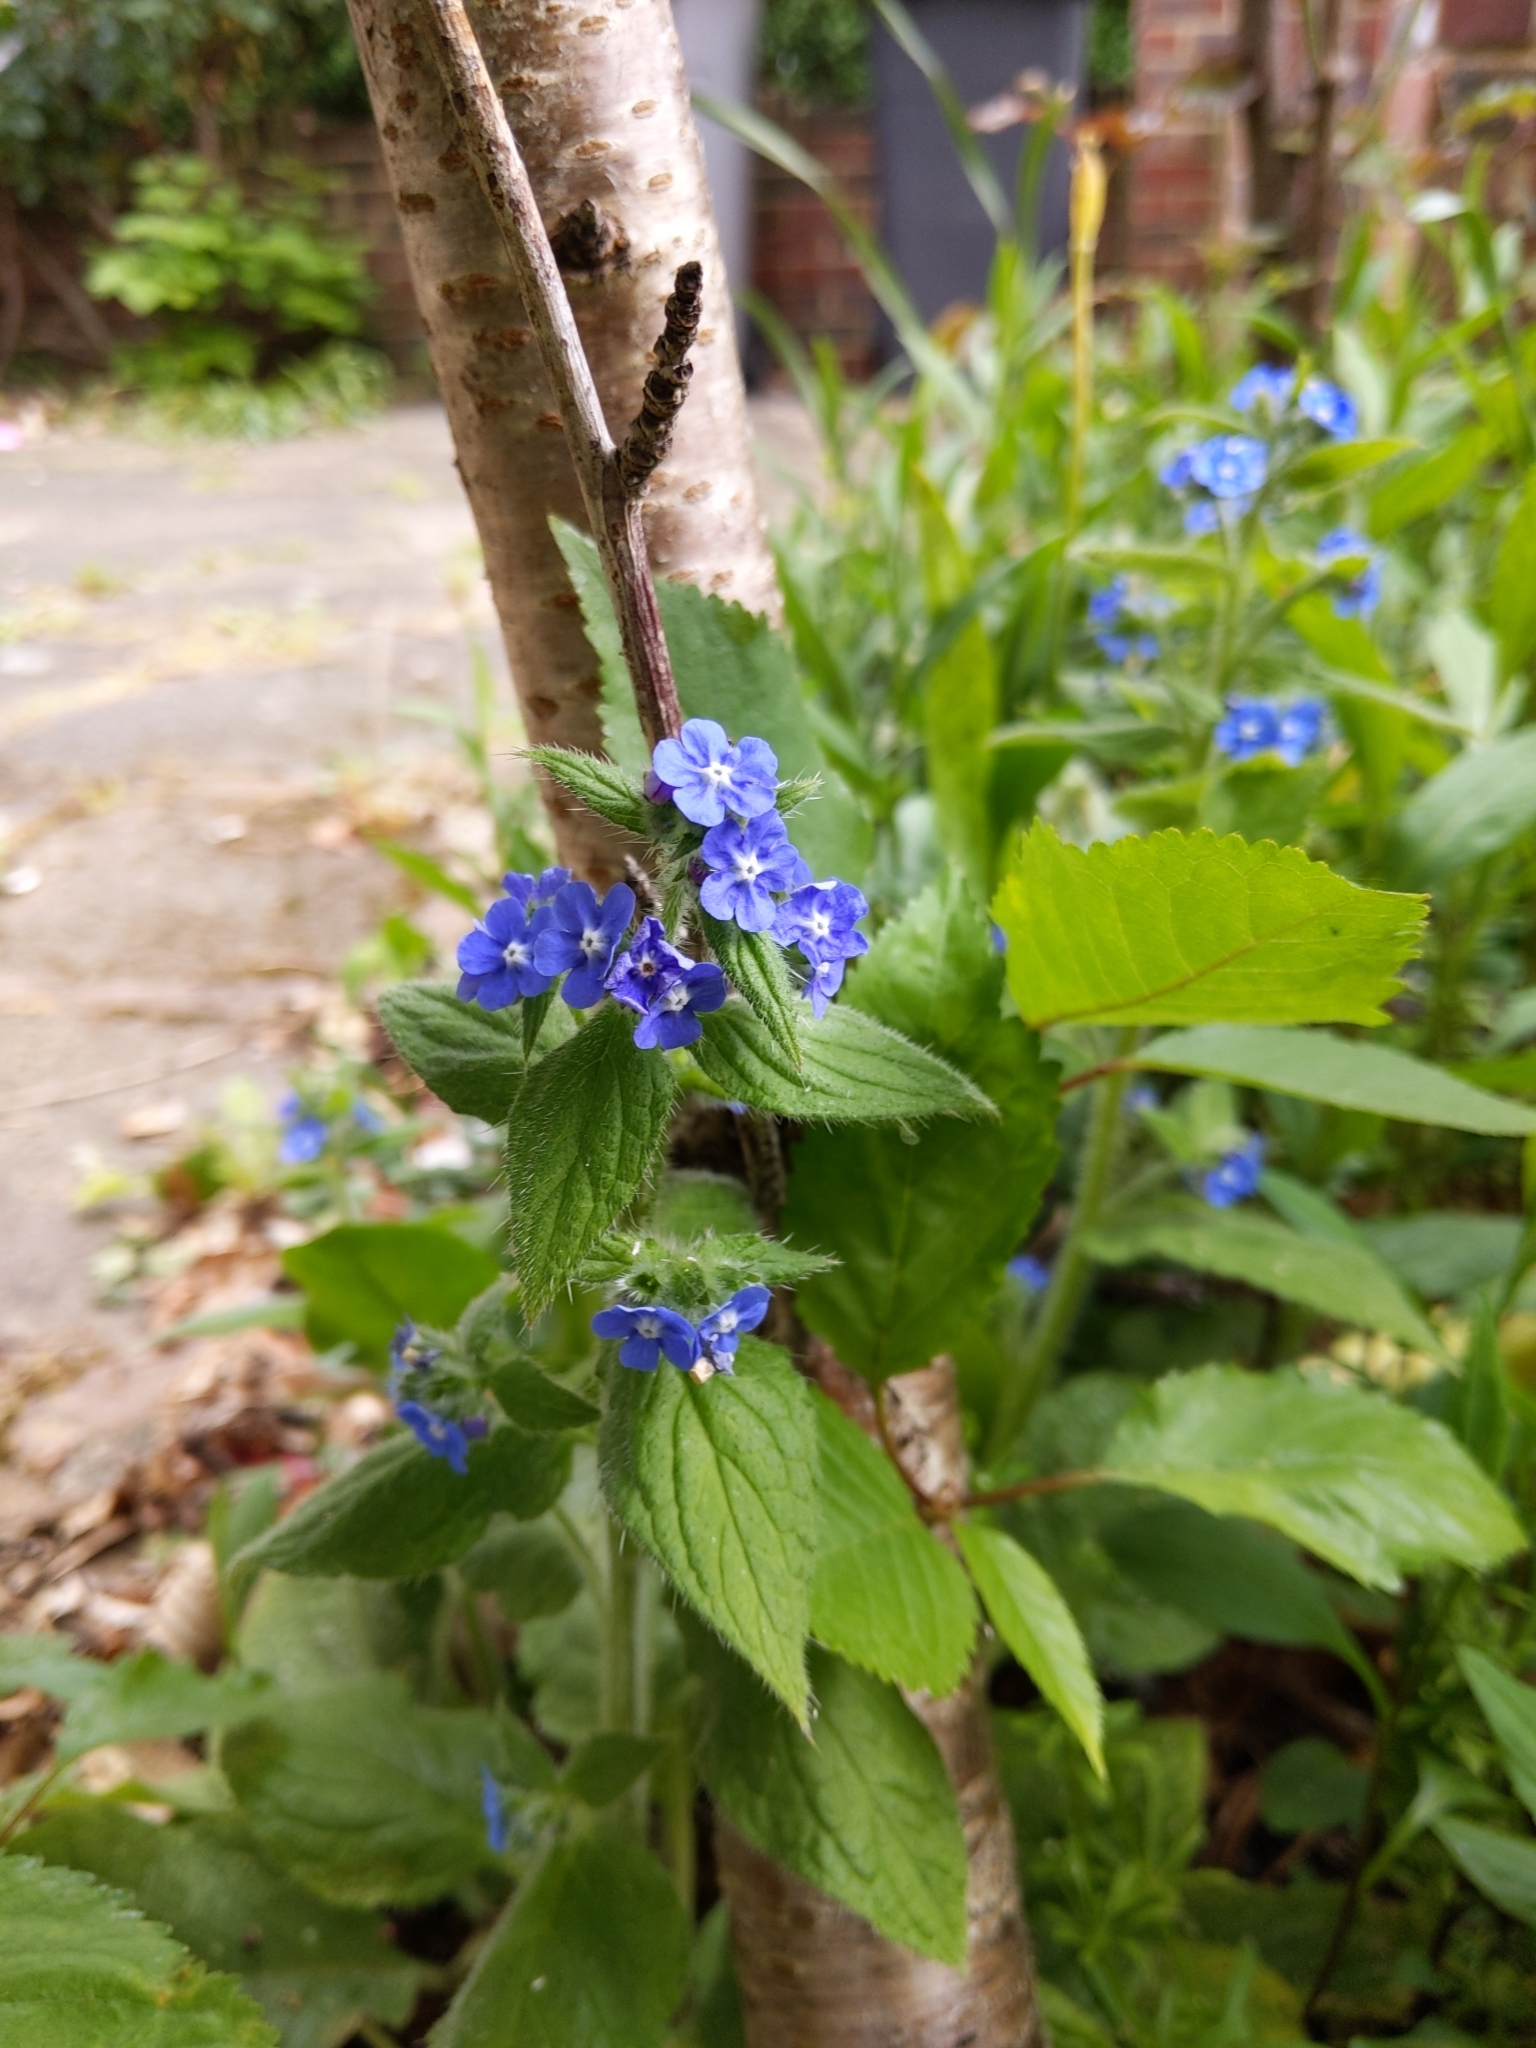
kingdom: Plantae
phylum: Tracheophyta
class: Magnoliopsida
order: Boraginales
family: Boraginaceae
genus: Pentaglottis
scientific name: Pentaglottis sempervirens
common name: Green alkanet
